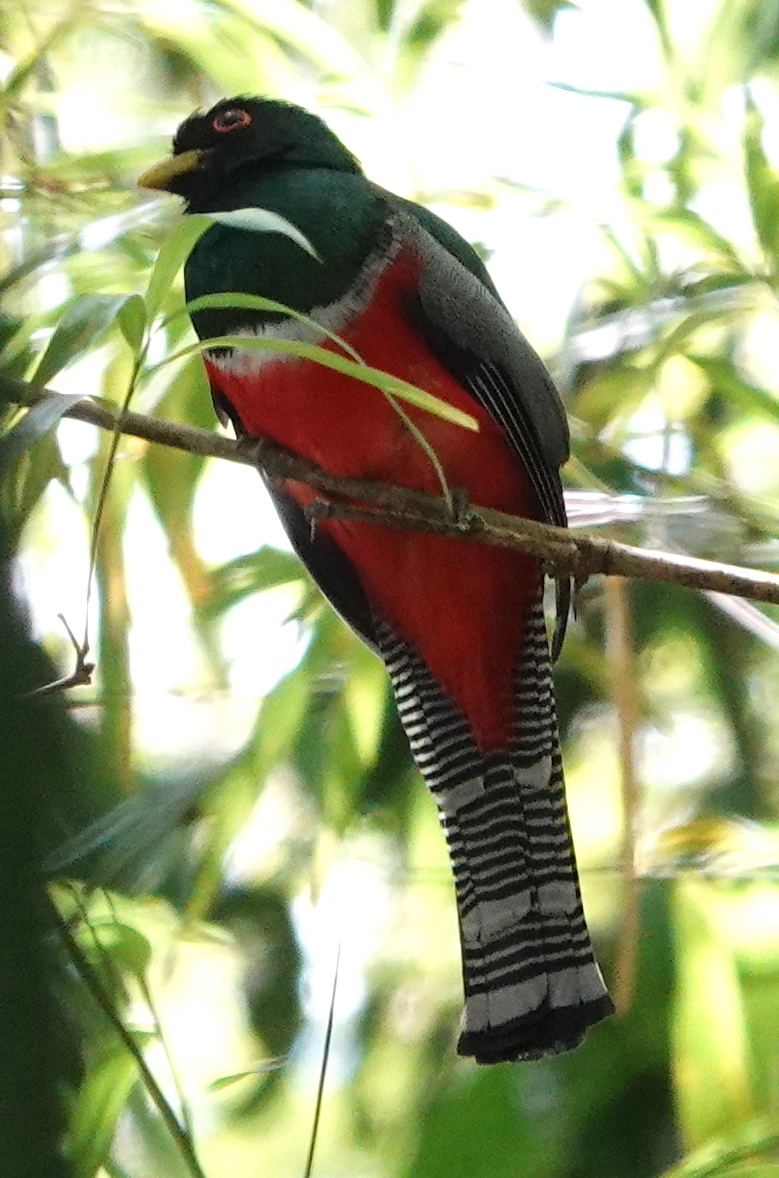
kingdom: Animalia
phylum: Chordata
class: Aves
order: Trogoniformes
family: Trogonidae
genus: Trogon
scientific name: Trogon collaris
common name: Collared trogon
